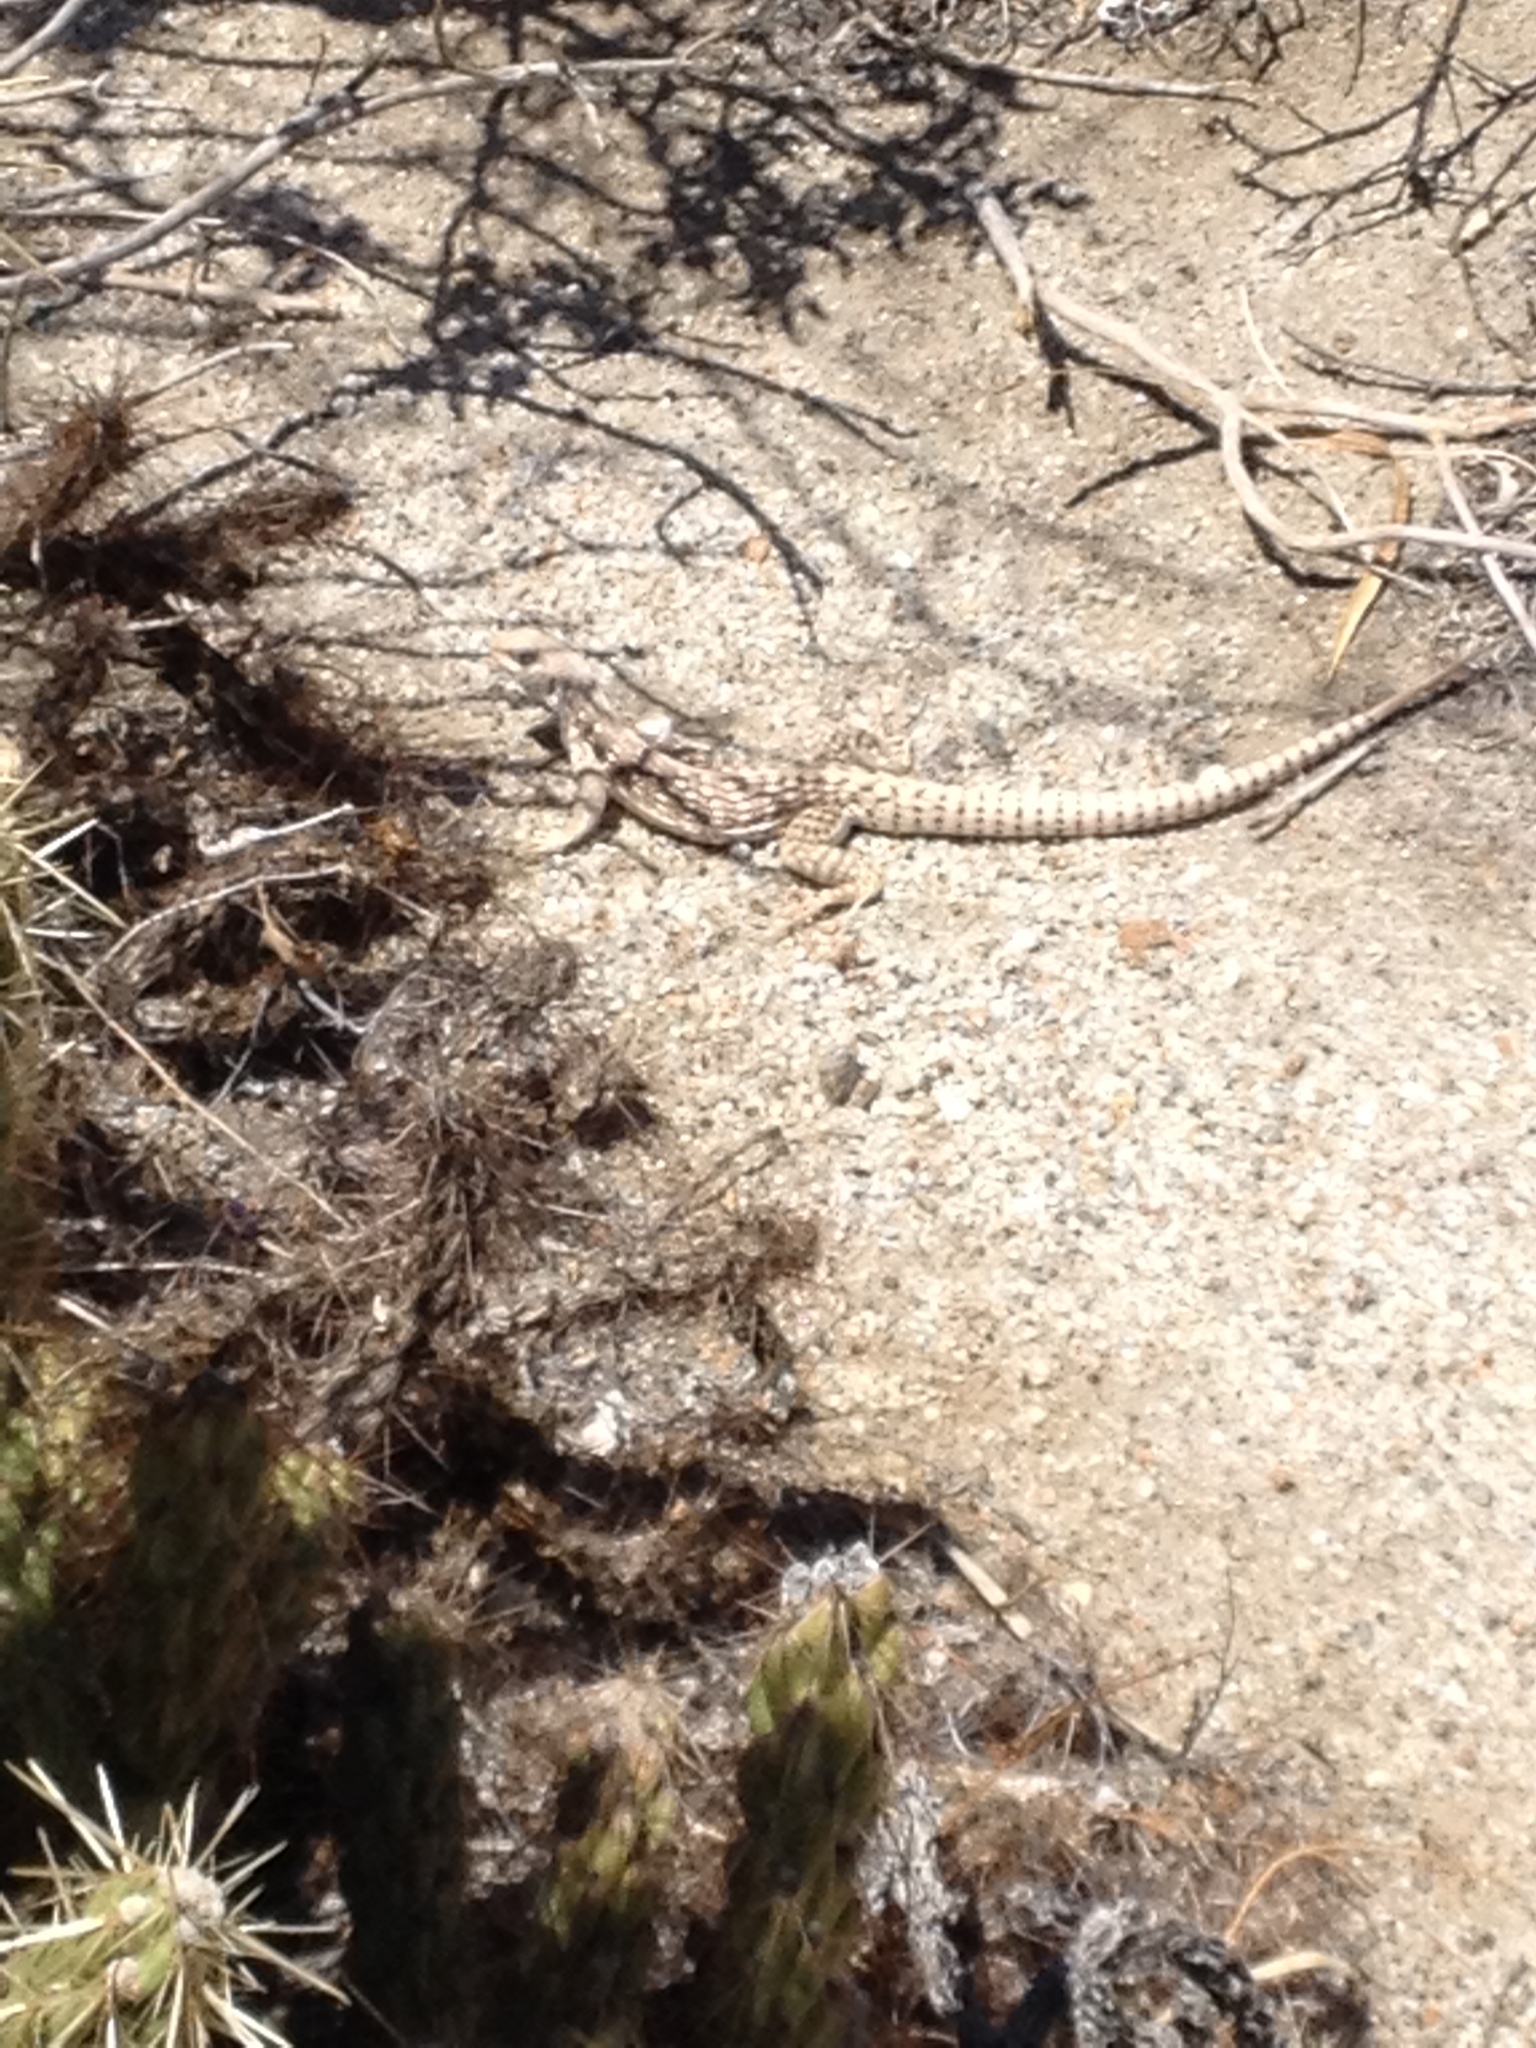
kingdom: Animalia
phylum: Chordata
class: Squamata
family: Iguanidae
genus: Dipsosaurus
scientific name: Dipsosaurus dorsalis
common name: Desert iguana
